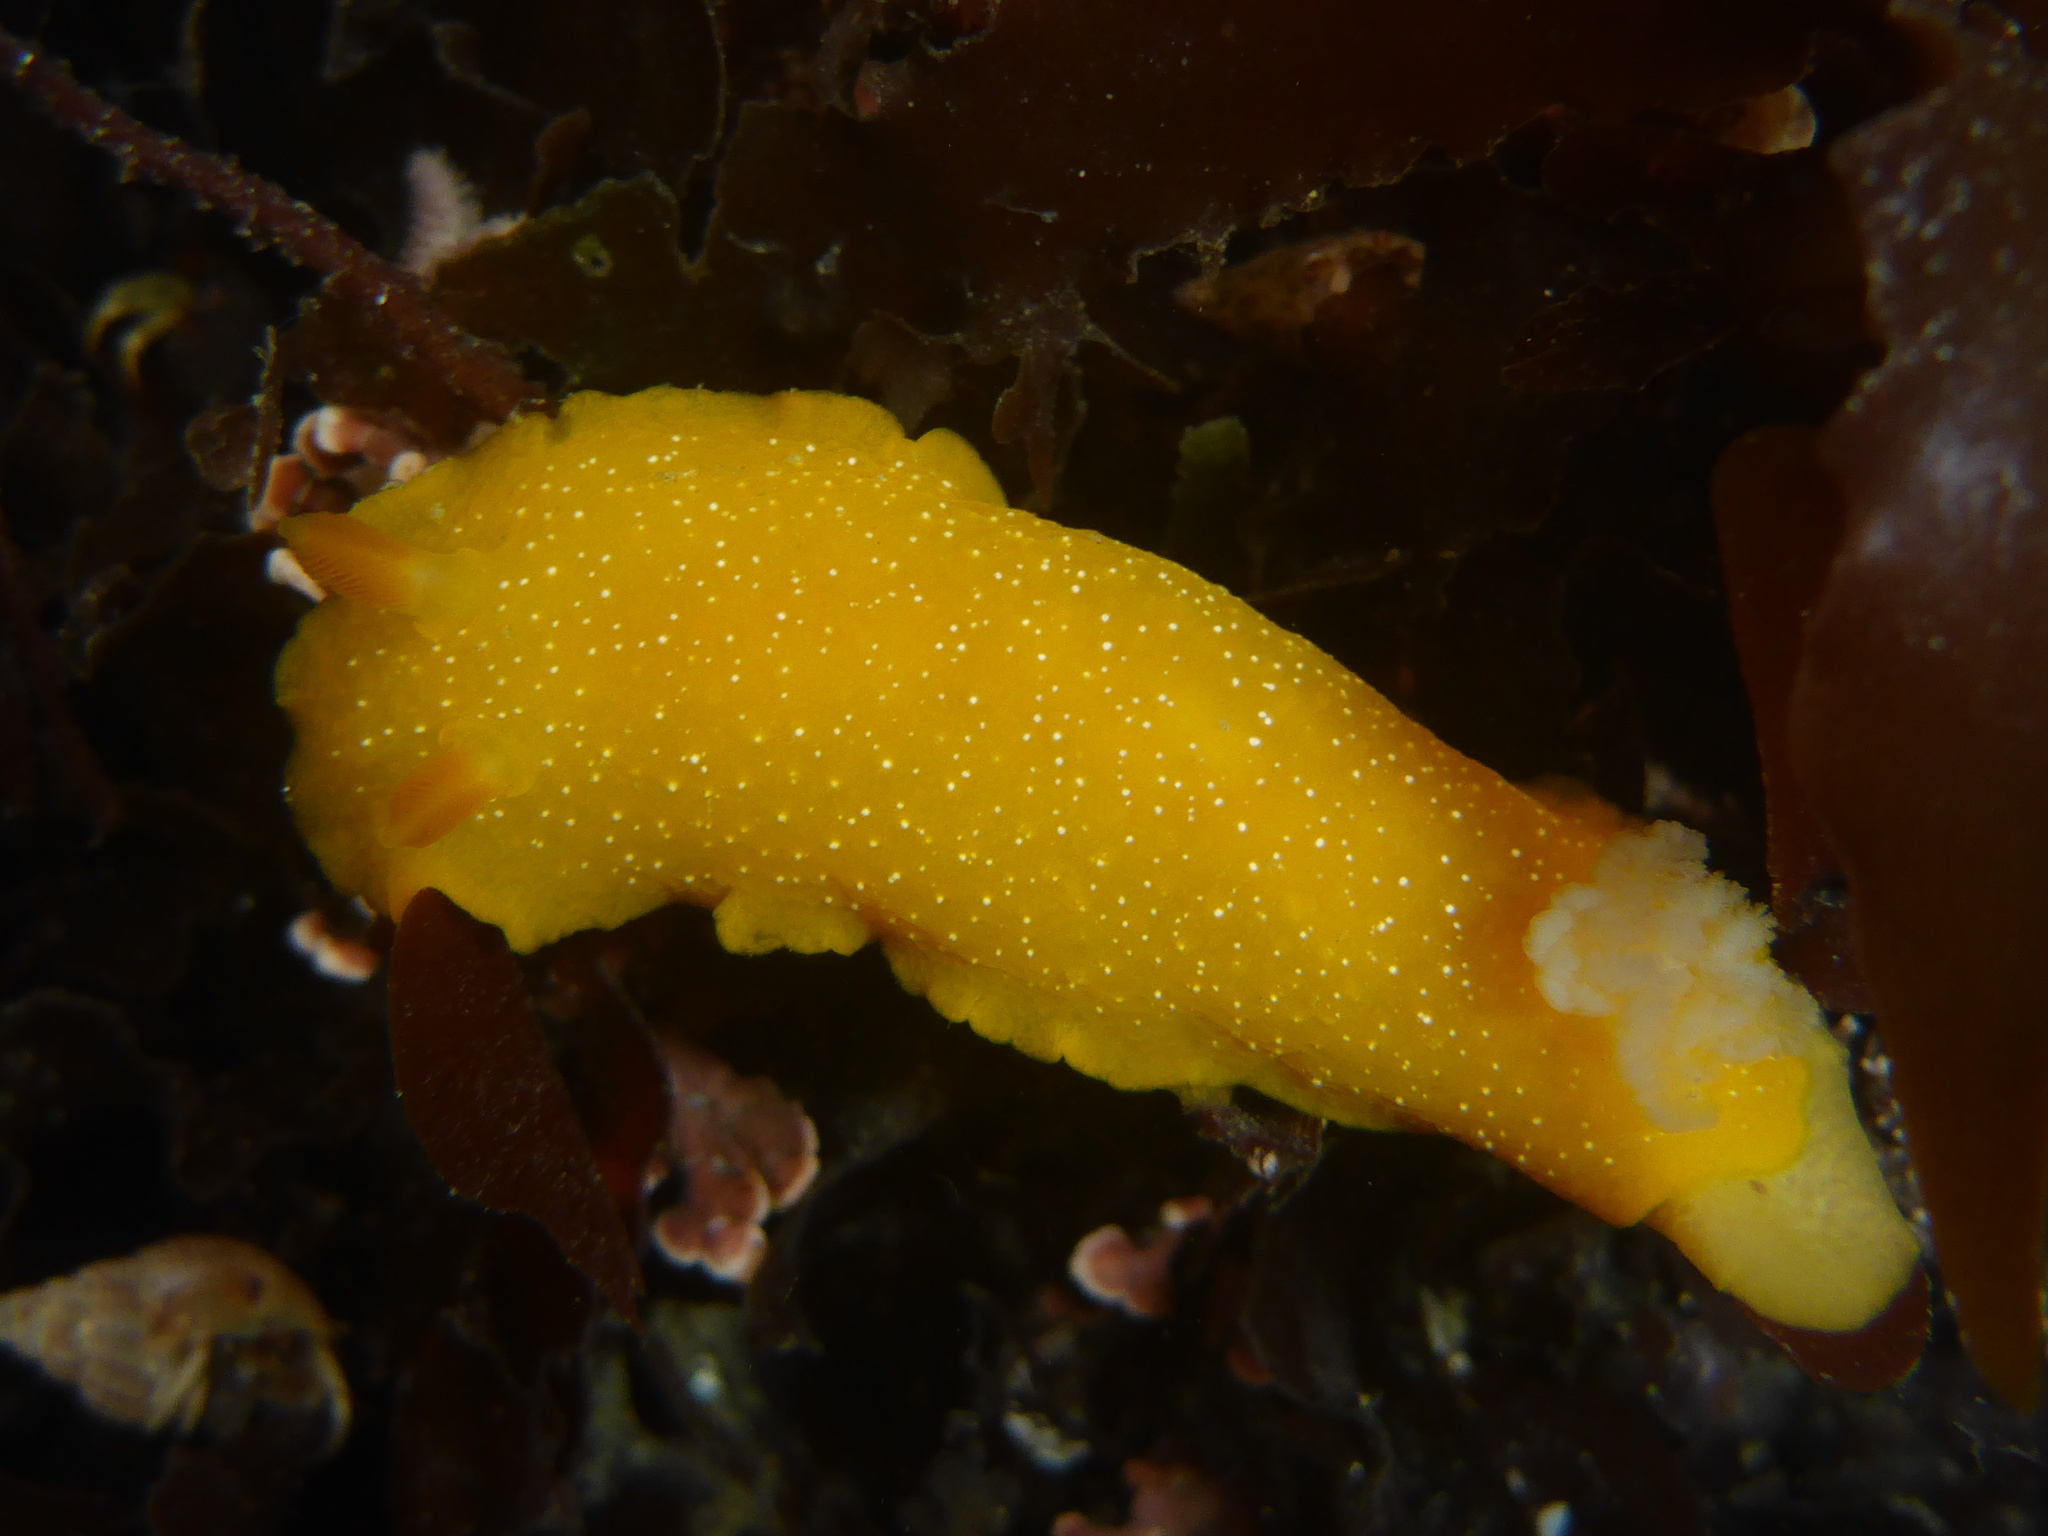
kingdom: Animalia
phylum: Mollusca
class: Gastropoda
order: Nudibranchia
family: Dendrodorididae
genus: Doriopsilla
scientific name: Doriopsilla fulva
